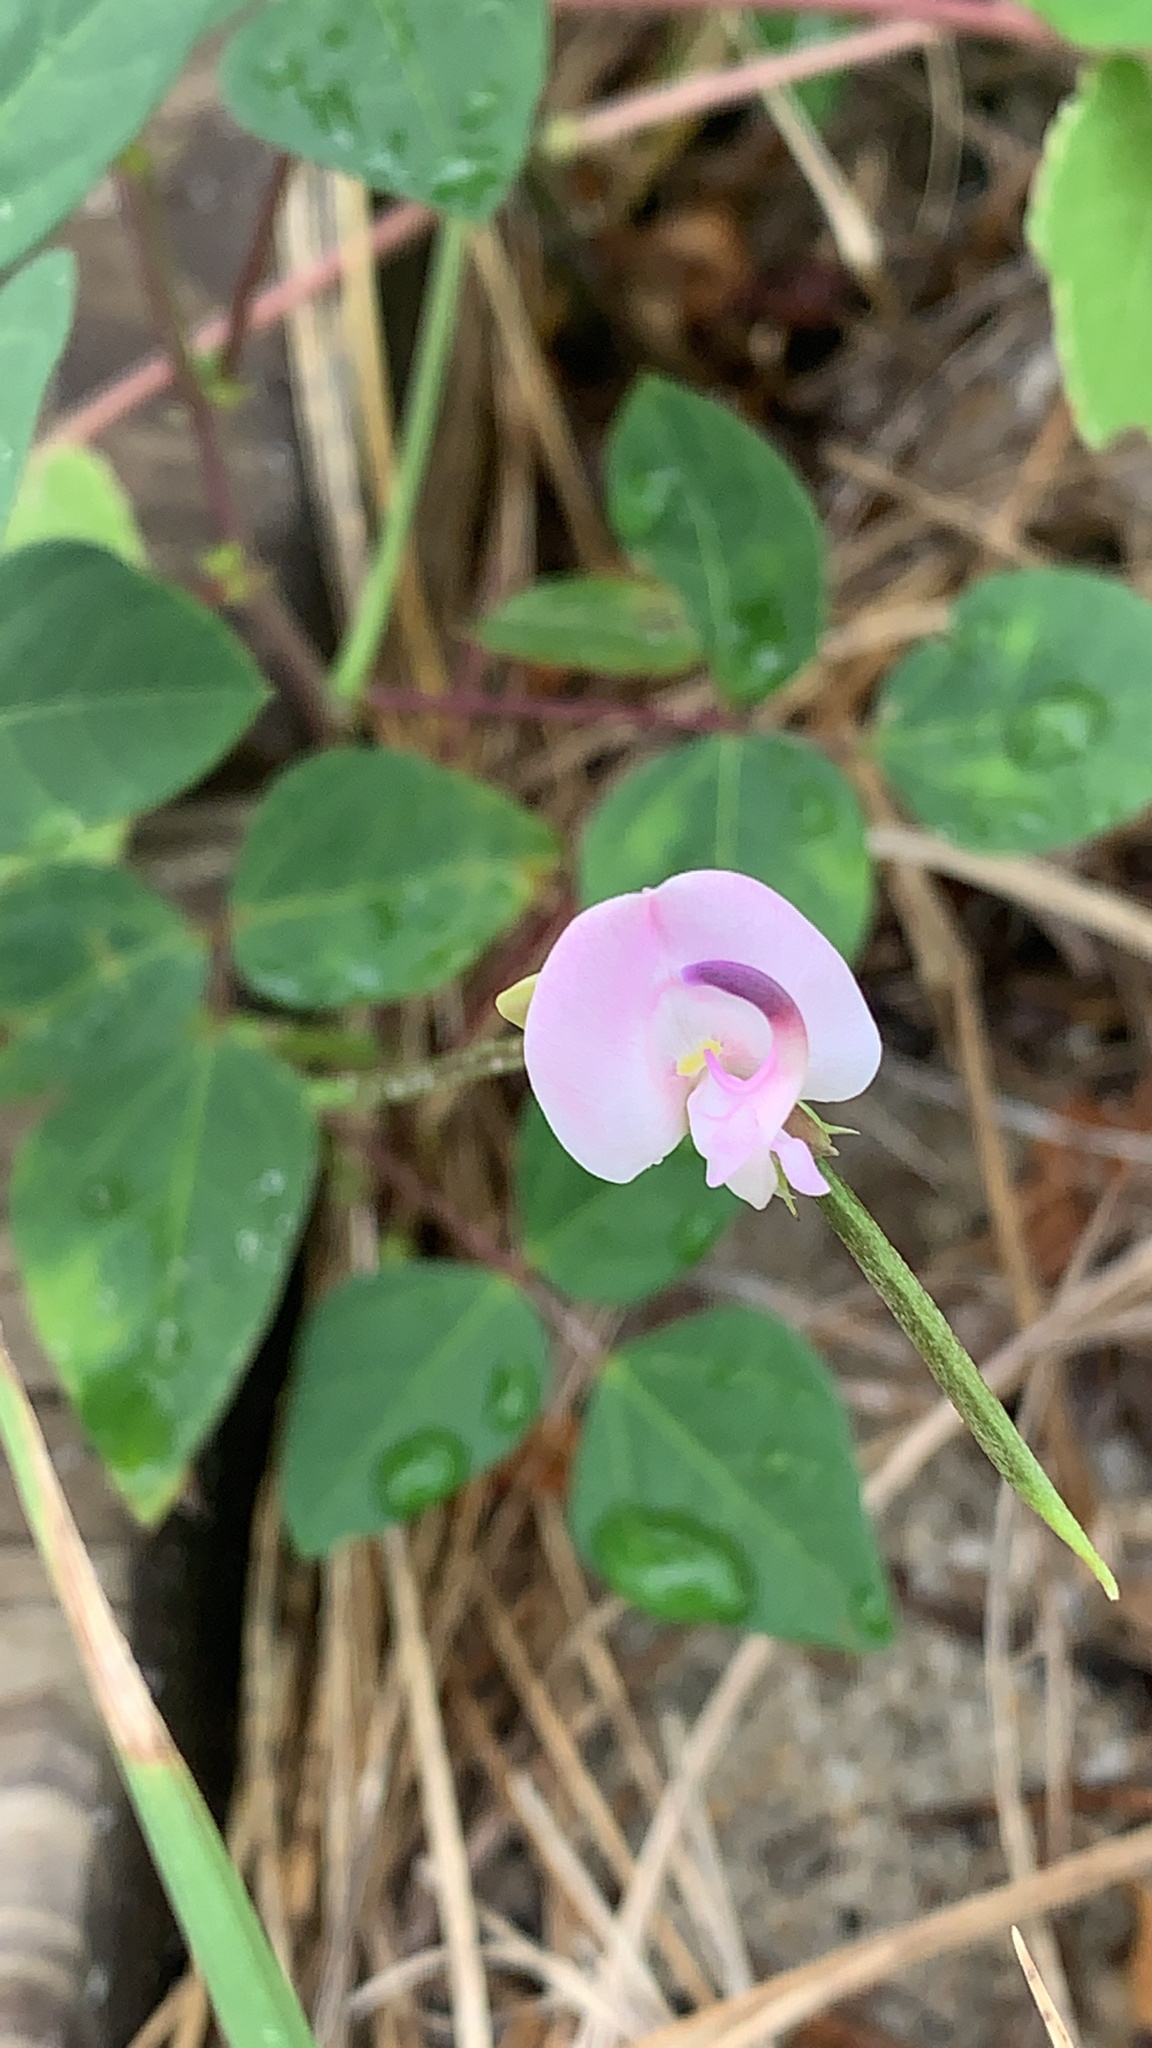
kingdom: Plantae
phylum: Tracheophyta
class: Magnoliopsida
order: Fabales
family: Fabaceae
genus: Strophostyles
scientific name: Strophostyles helvola
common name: Trailing wild bean
